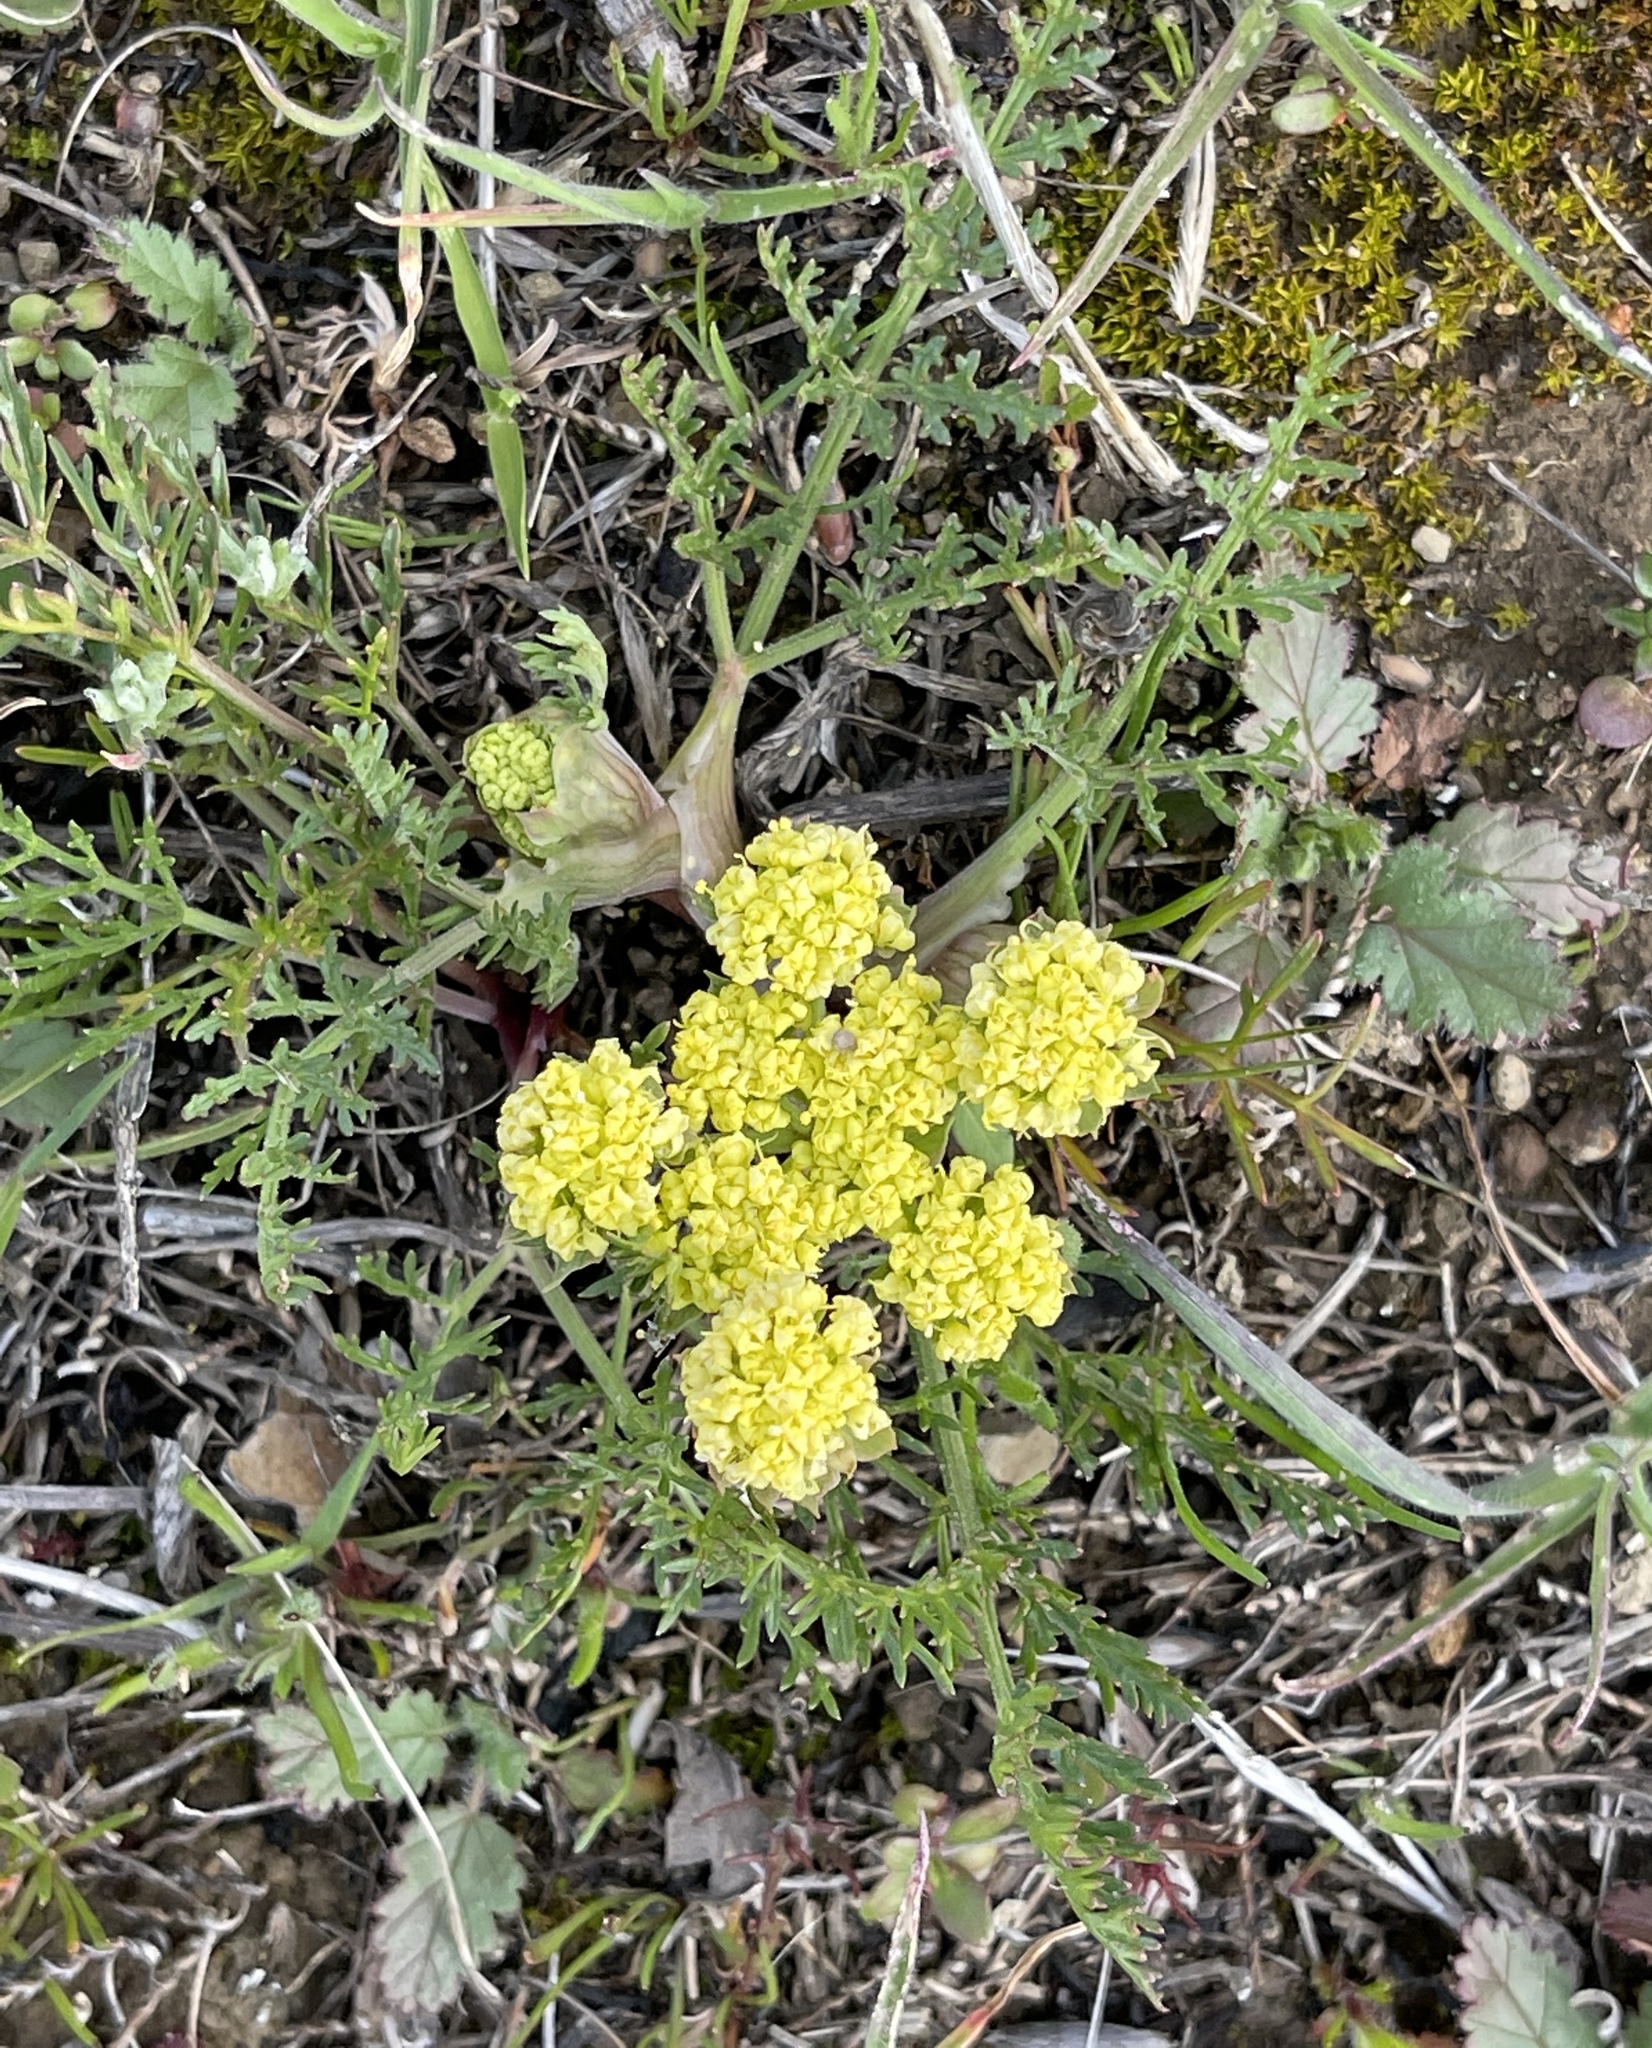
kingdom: Plantae
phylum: Tracheophyta
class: Magnoliopsida
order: Apiales
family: Apiaceae
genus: Lomatium
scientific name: Lomatium utriculatum
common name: Fine-leaf desert-parsley
